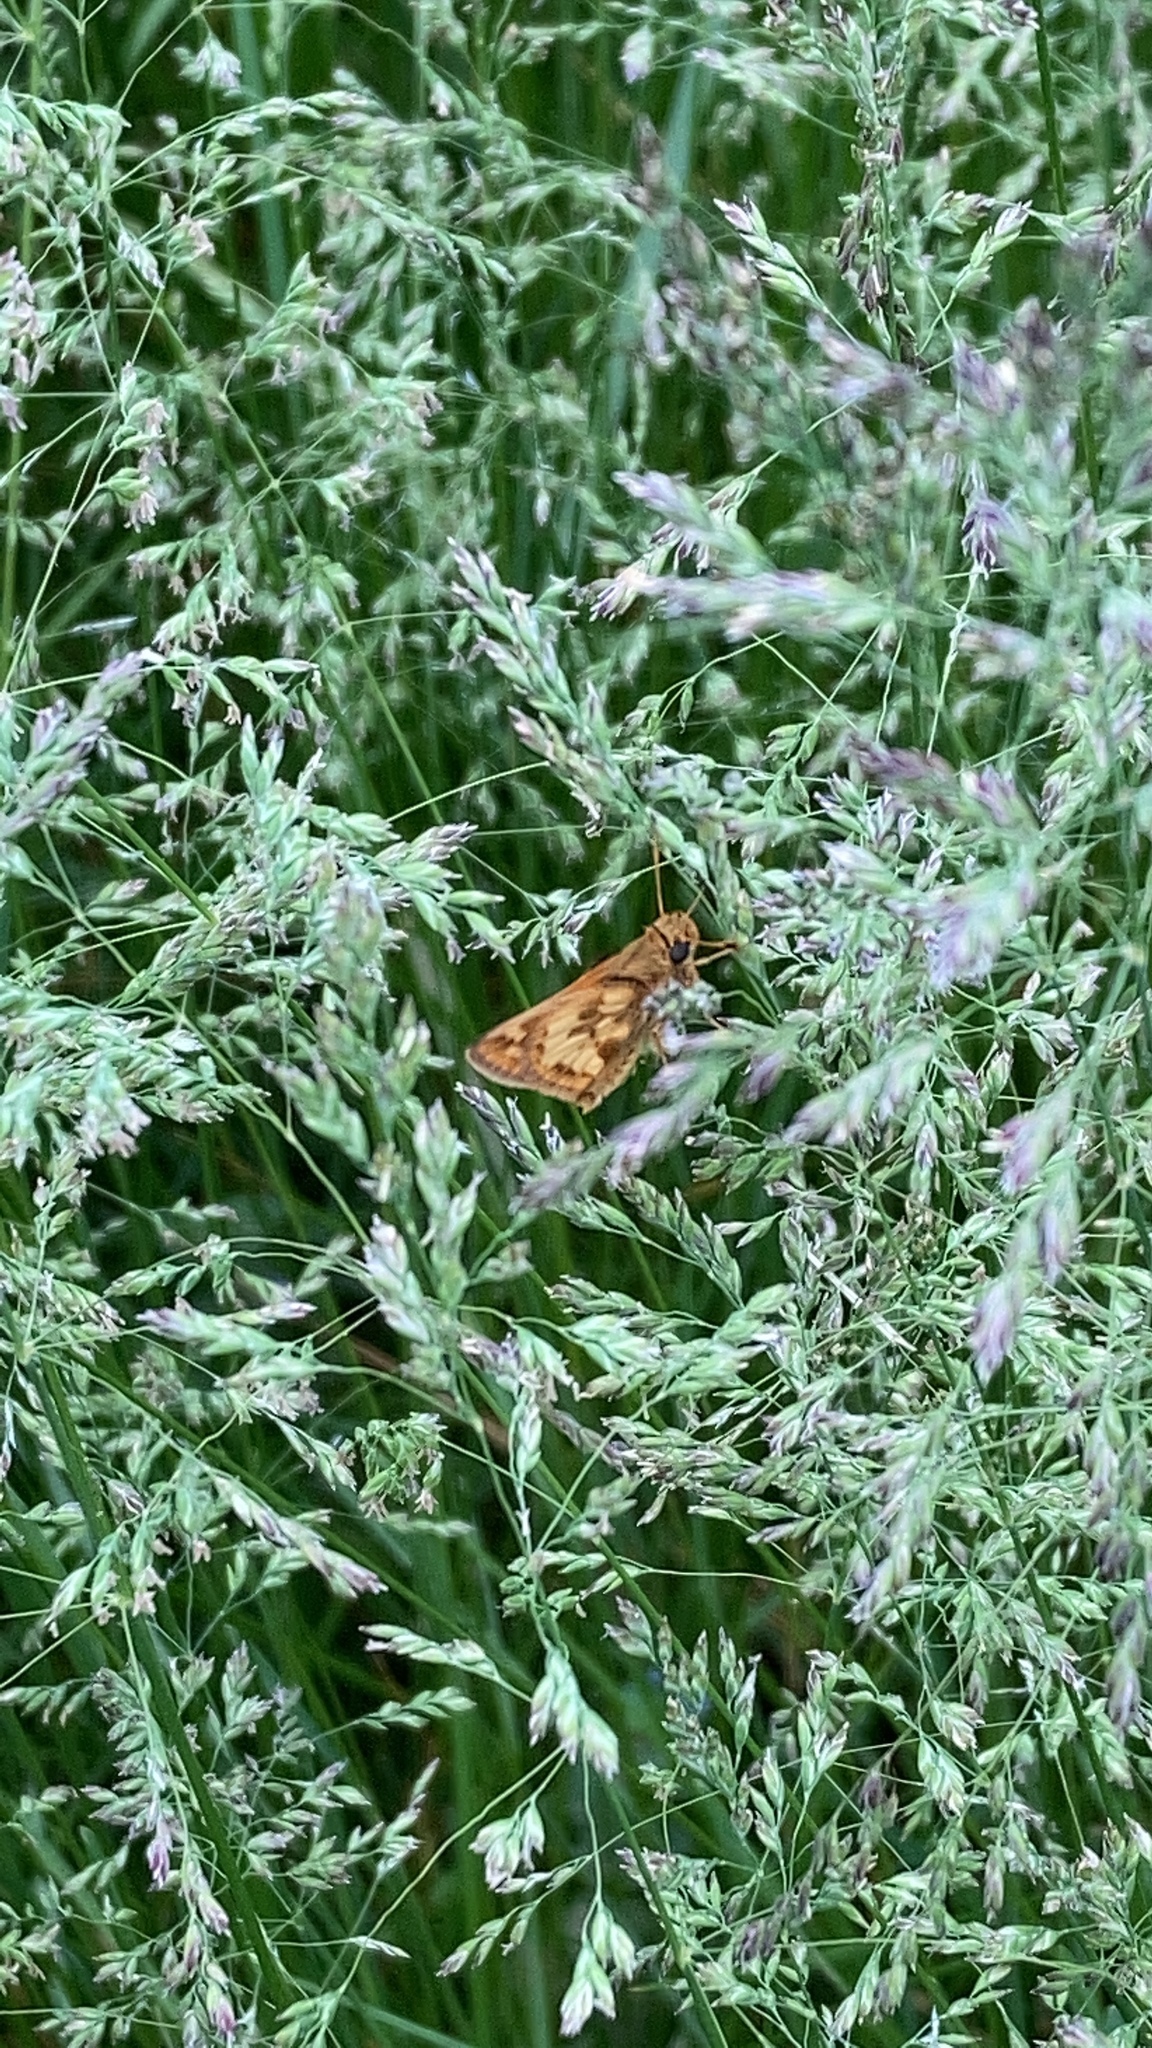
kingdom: Animalia
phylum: Arthropoda
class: Insecta
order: Lepidoptera
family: Hesperiidae
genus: Polites
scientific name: Polites coras
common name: Peck's skipper
